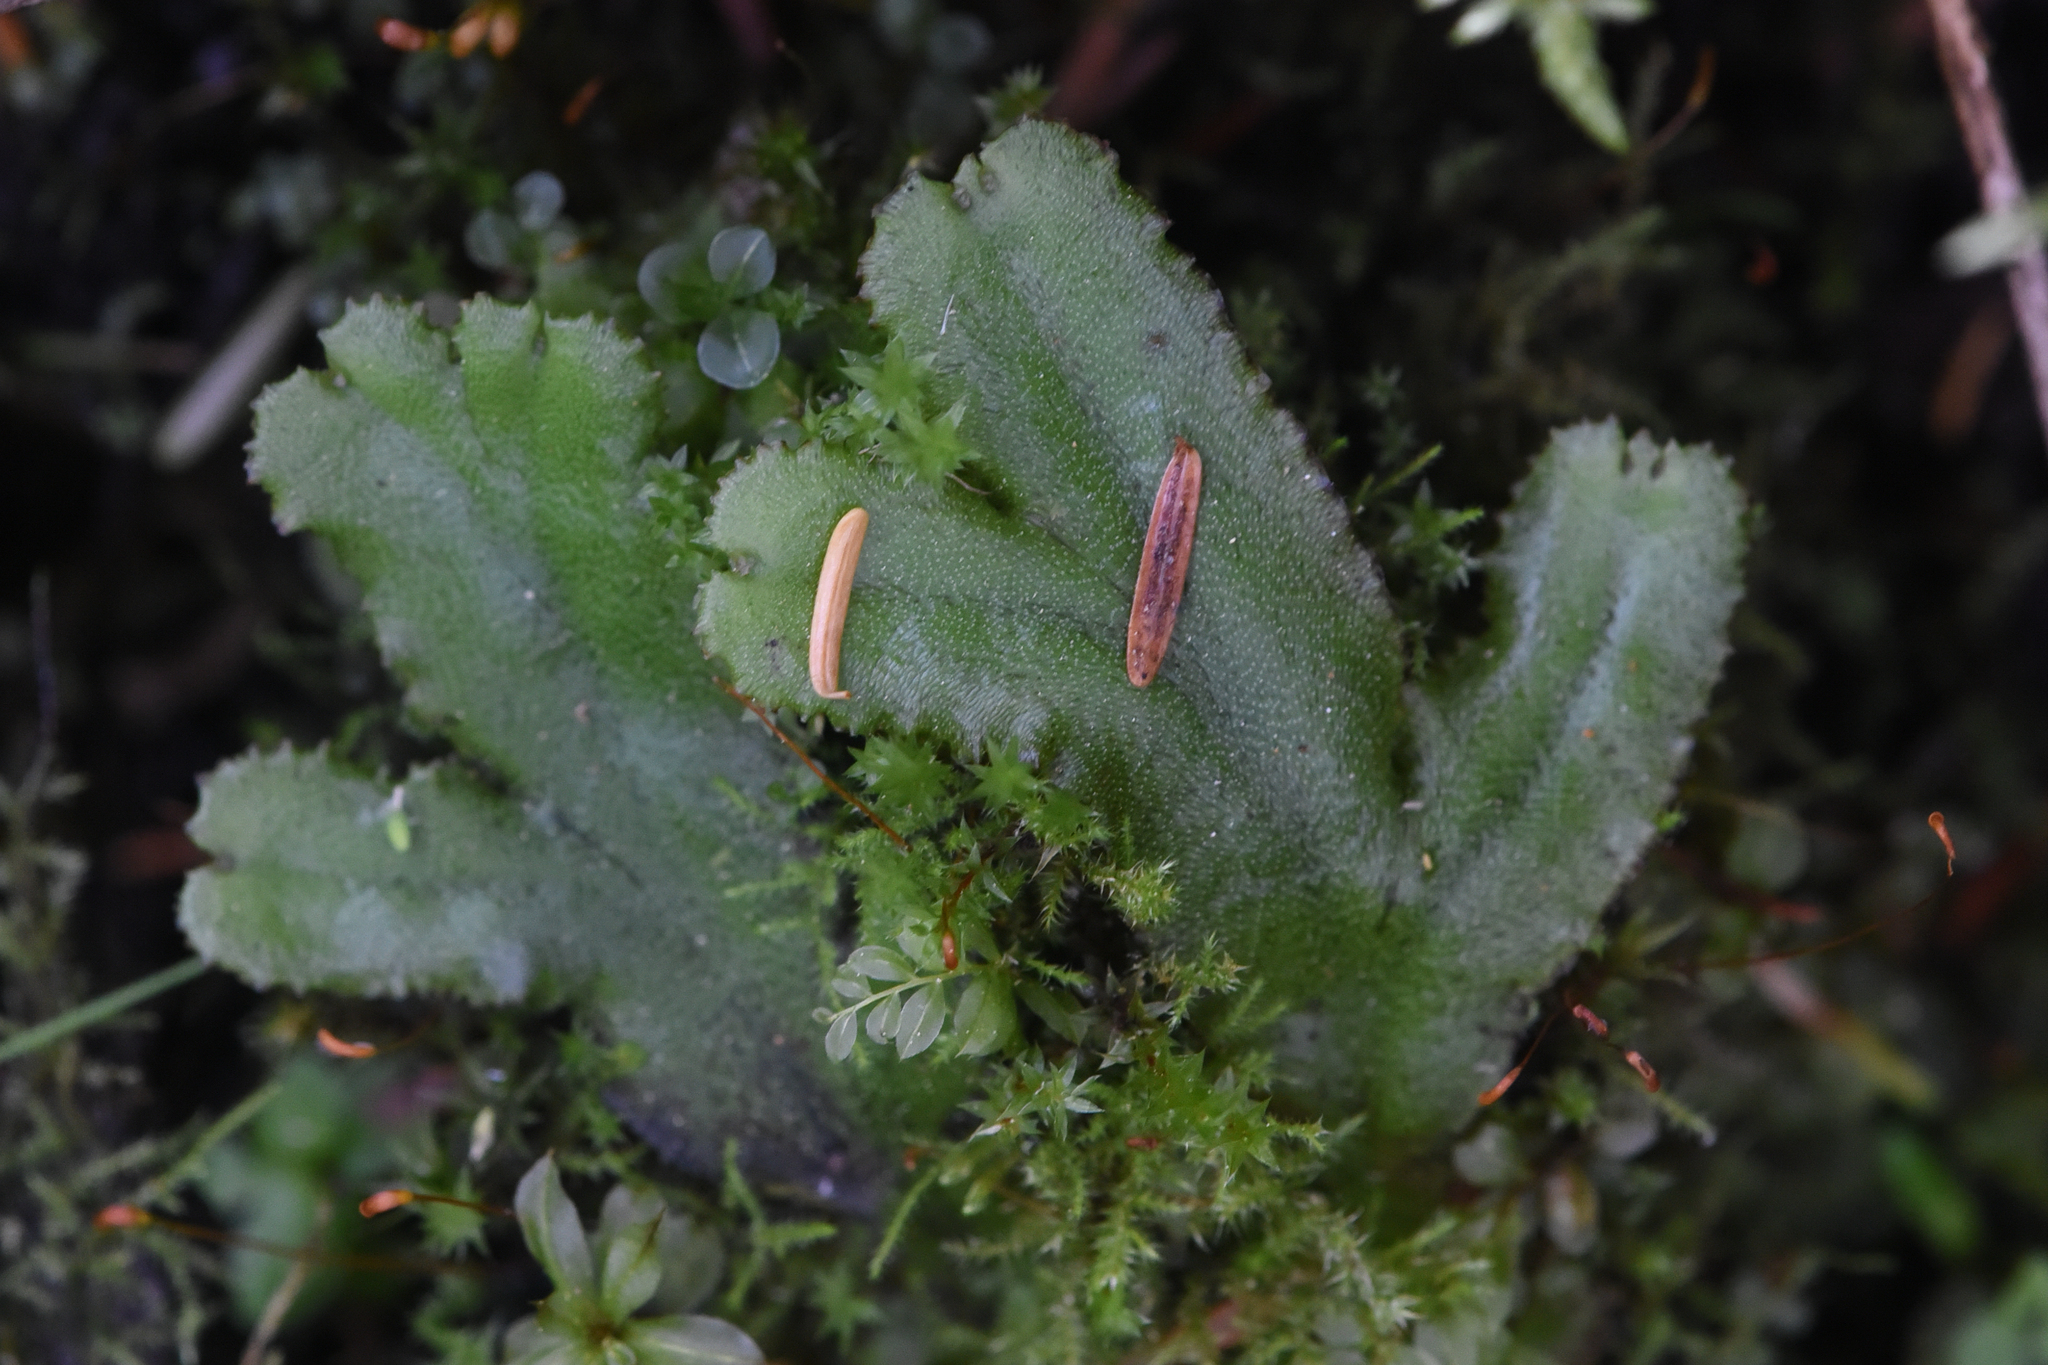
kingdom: Plantae
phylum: Marchantiophyta
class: Marchantiopsida
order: Marchantiales
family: Marchantiaceae
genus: Marchantia
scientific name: Marchantia polymorpha
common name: Common liverwort
